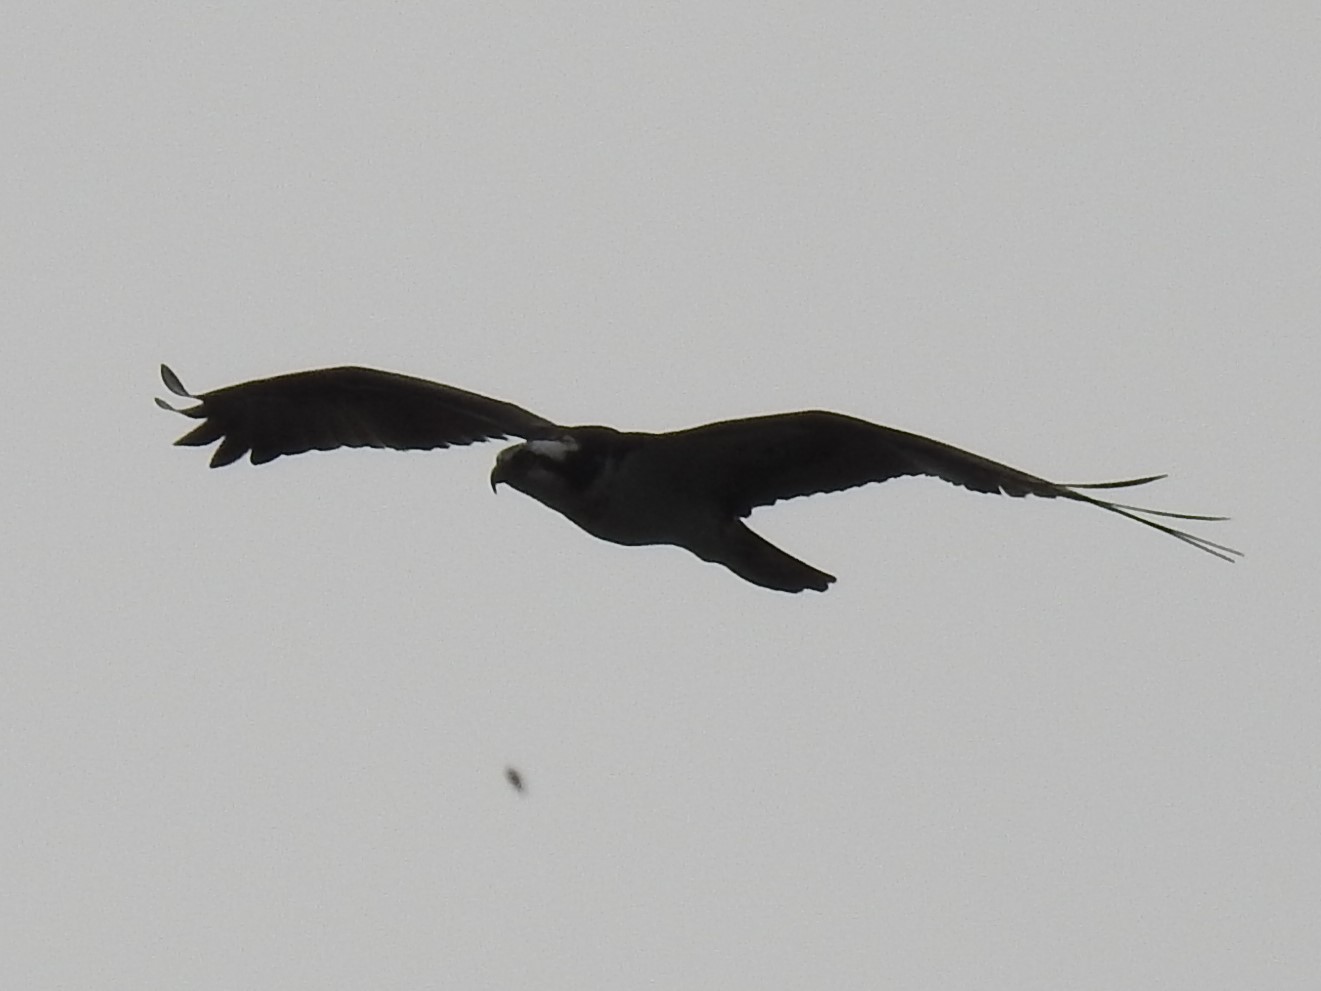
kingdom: Animalia
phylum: Chordata
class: Aves
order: Accipitriformes
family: Pandionidae
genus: Pandion
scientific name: Pandion haliaetus
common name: Osprey
